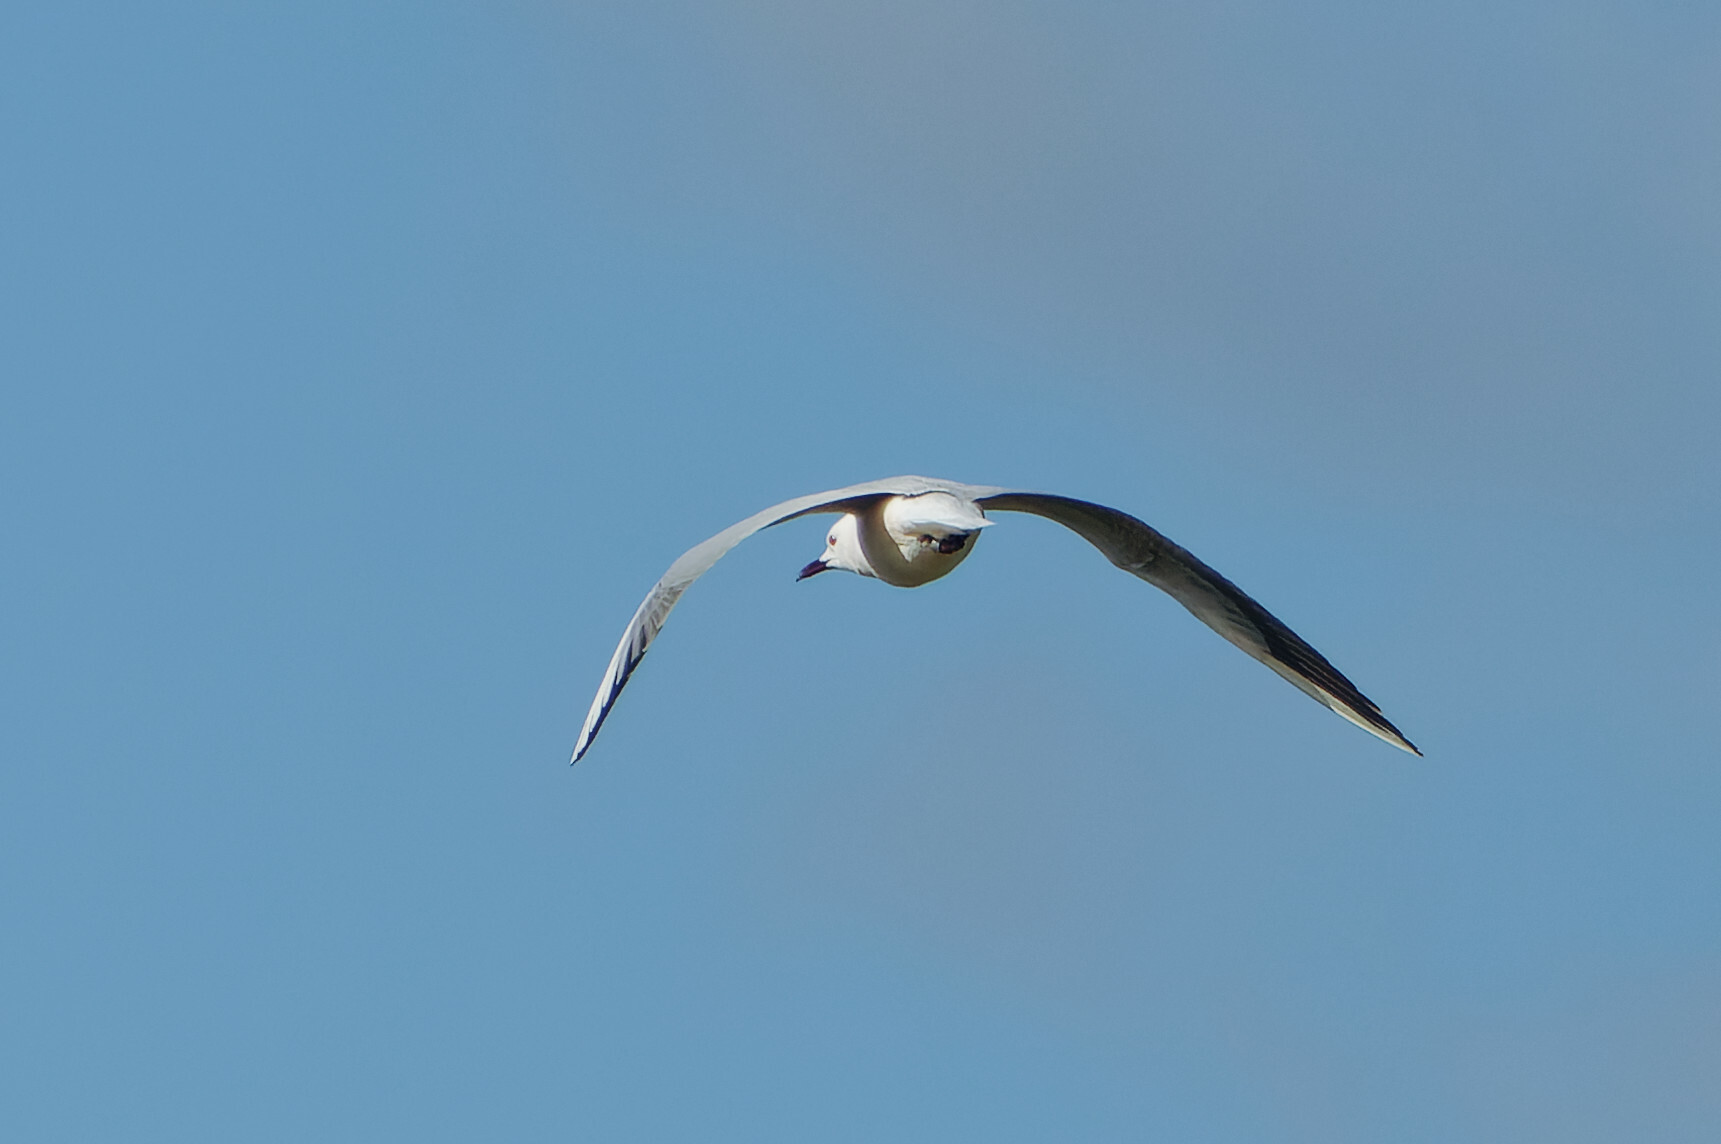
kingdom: Animalia
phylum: Chordata
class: Aves
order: Charadriiformes
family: Laridae
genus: Chroicocephalus
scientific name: Chroicocephalus genei
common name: Slender-billed gull
